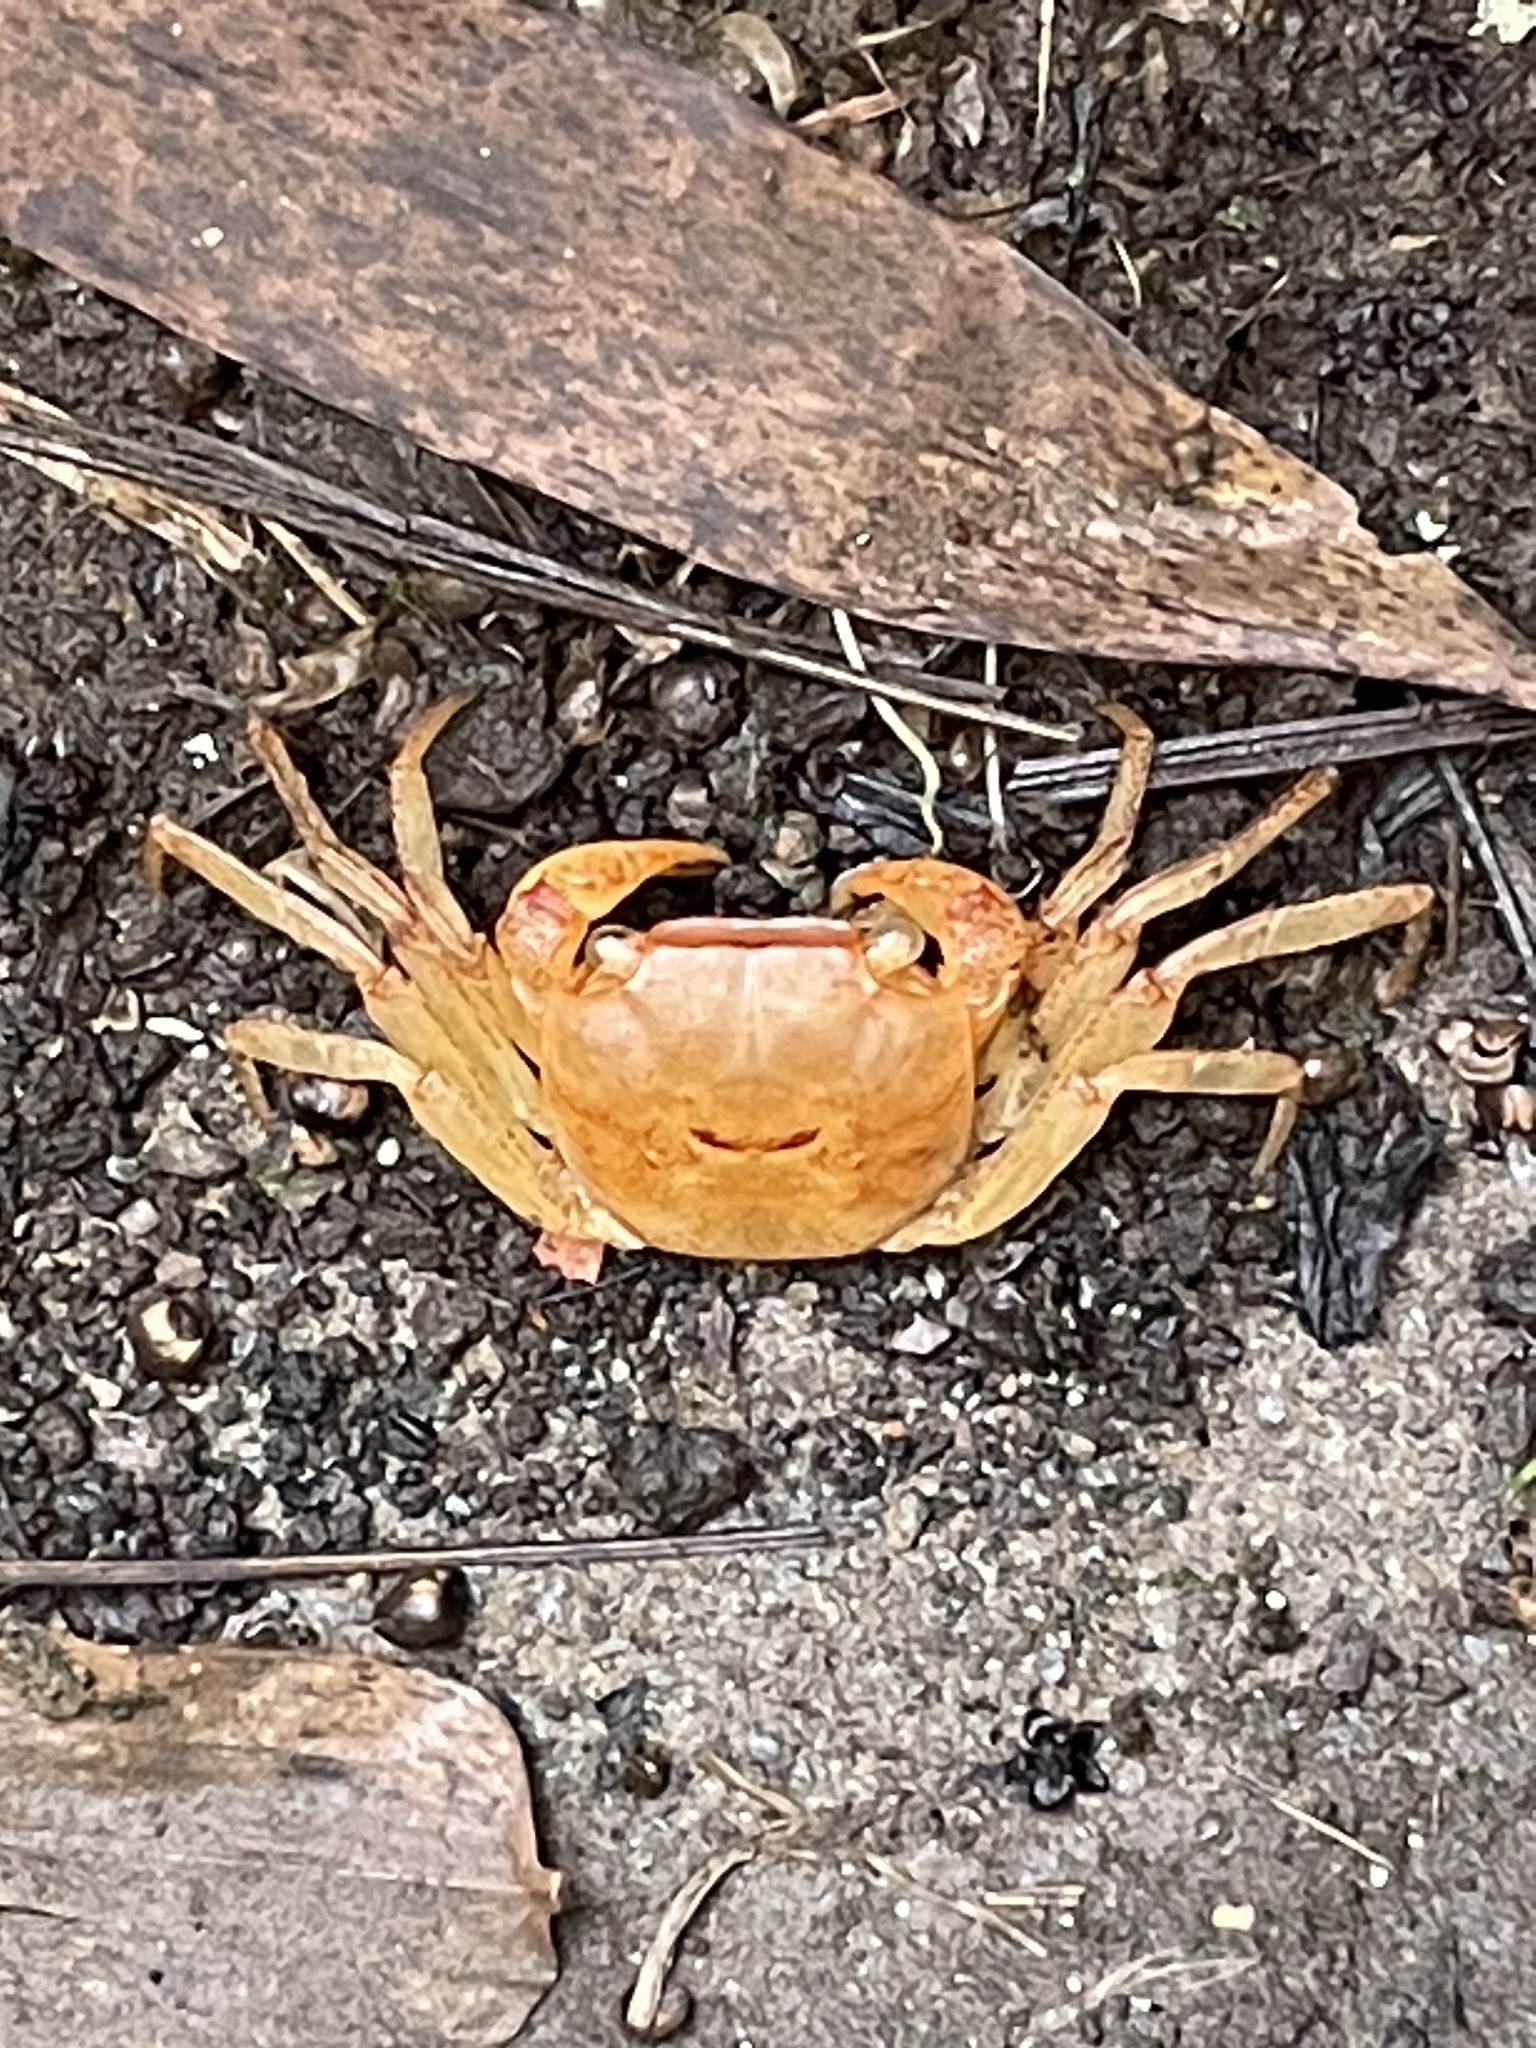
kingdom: Animalia
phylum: Arthropoda
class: Malacostraca
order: Decapoda
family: Sesarmidae
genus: Chiromantes
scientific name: Chiromantes haematocheir
